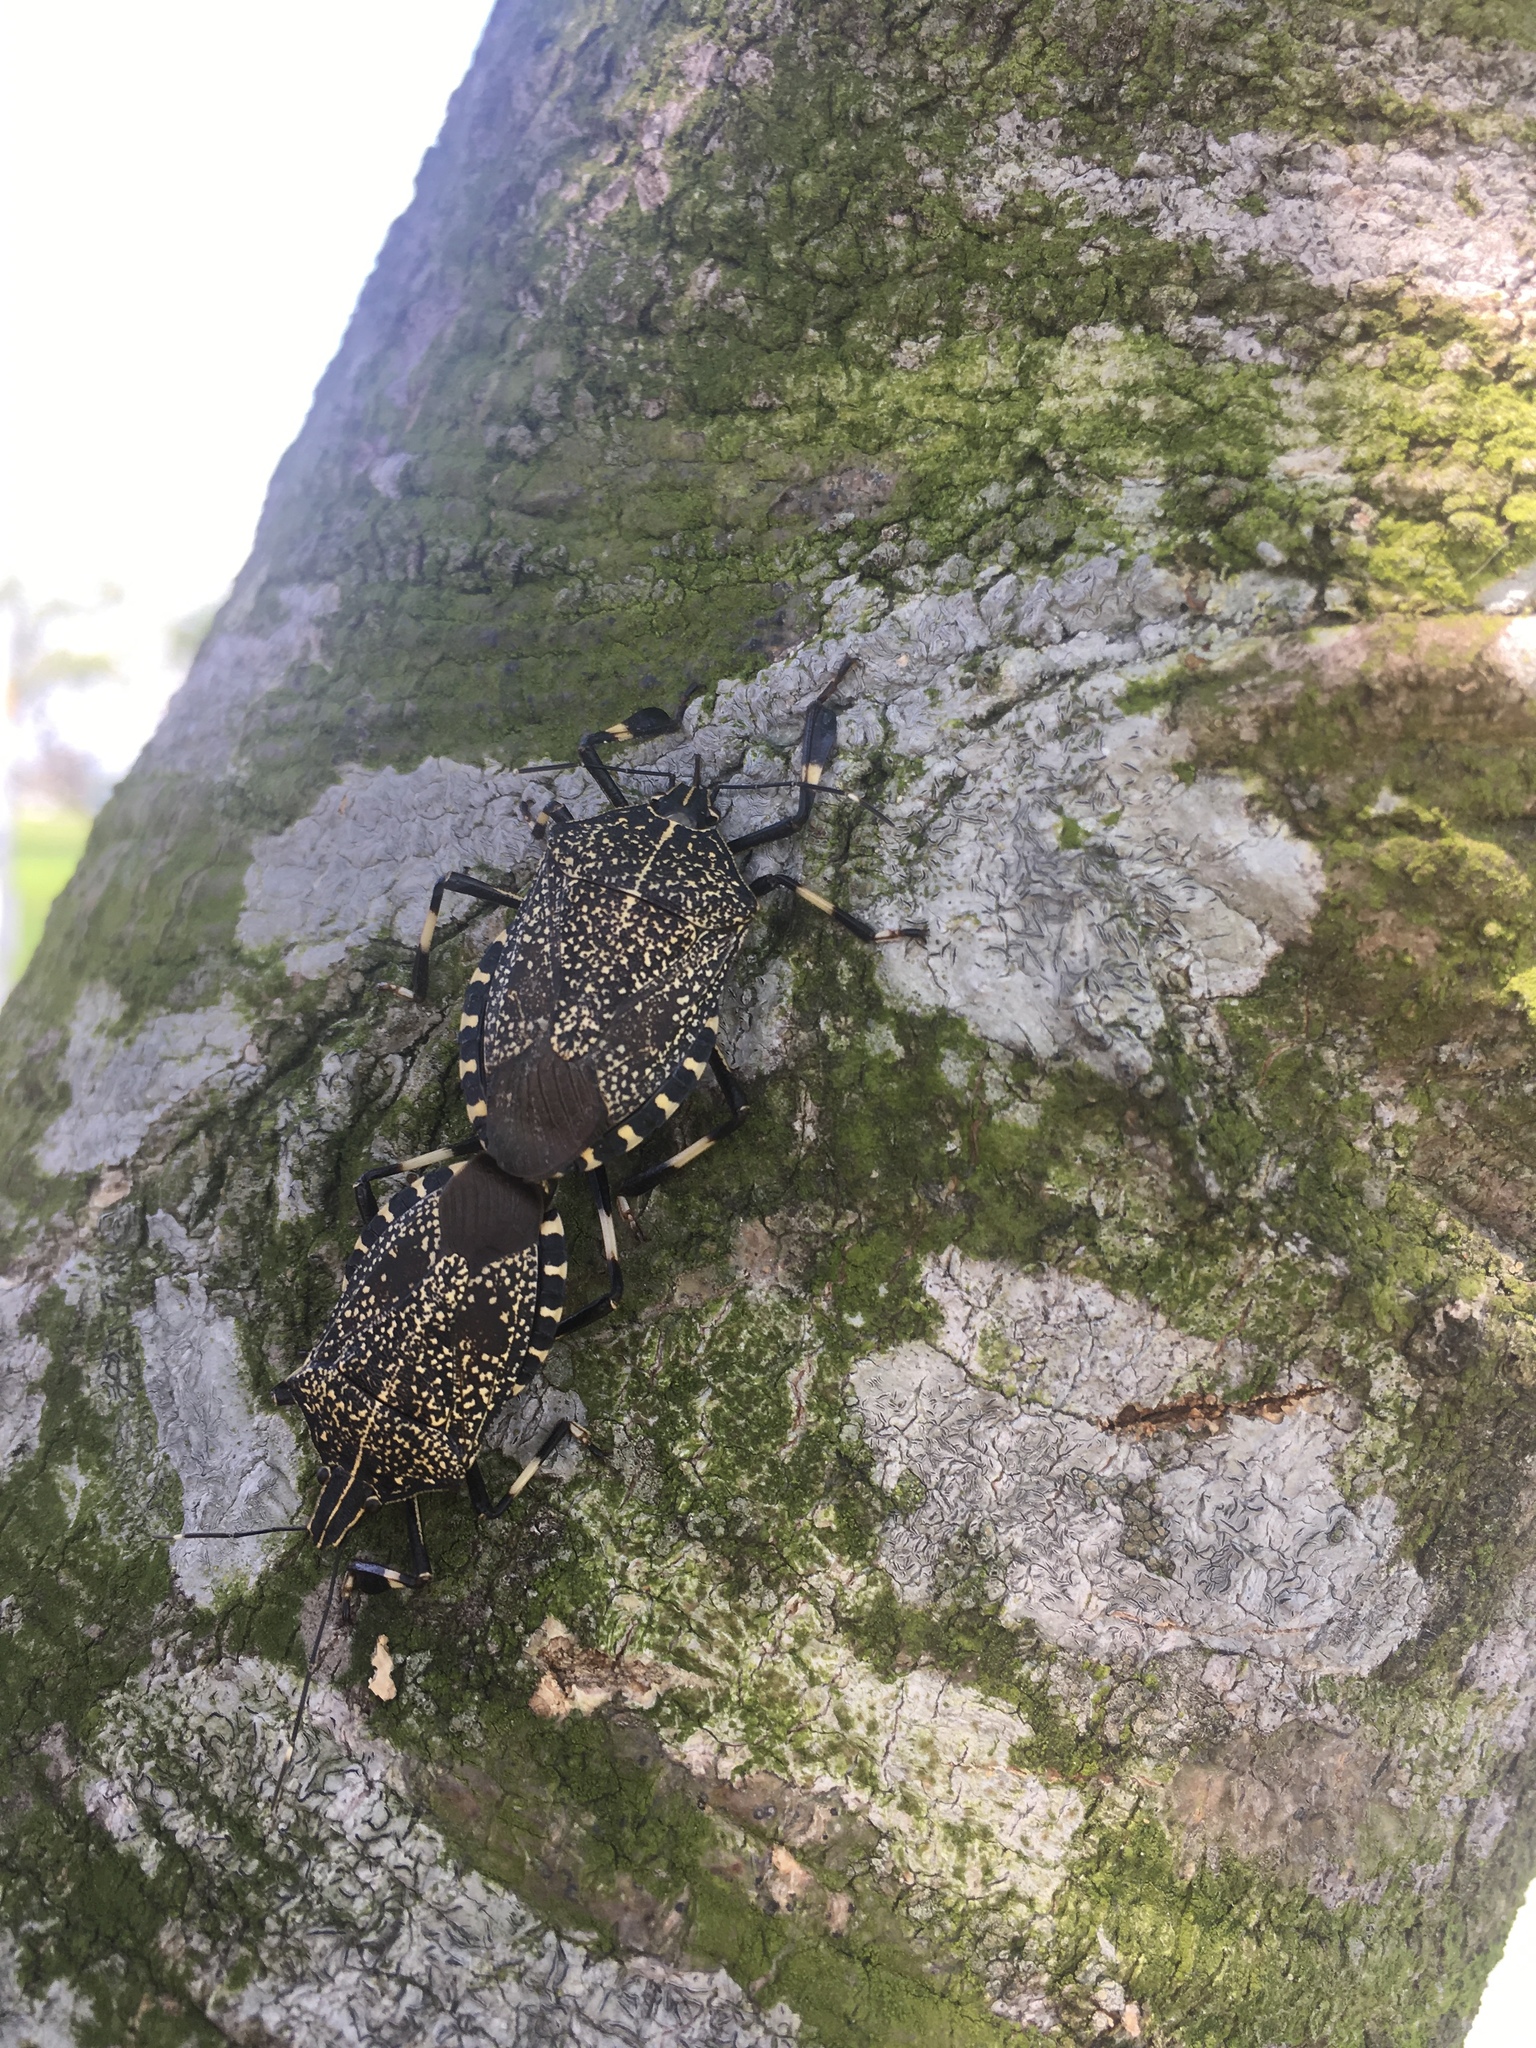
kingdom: Animalia
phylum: Arthropoda
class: Insecta
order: Hemiptera
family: Pentatomidae
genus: Erthesina
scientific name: Erthesina fullo
